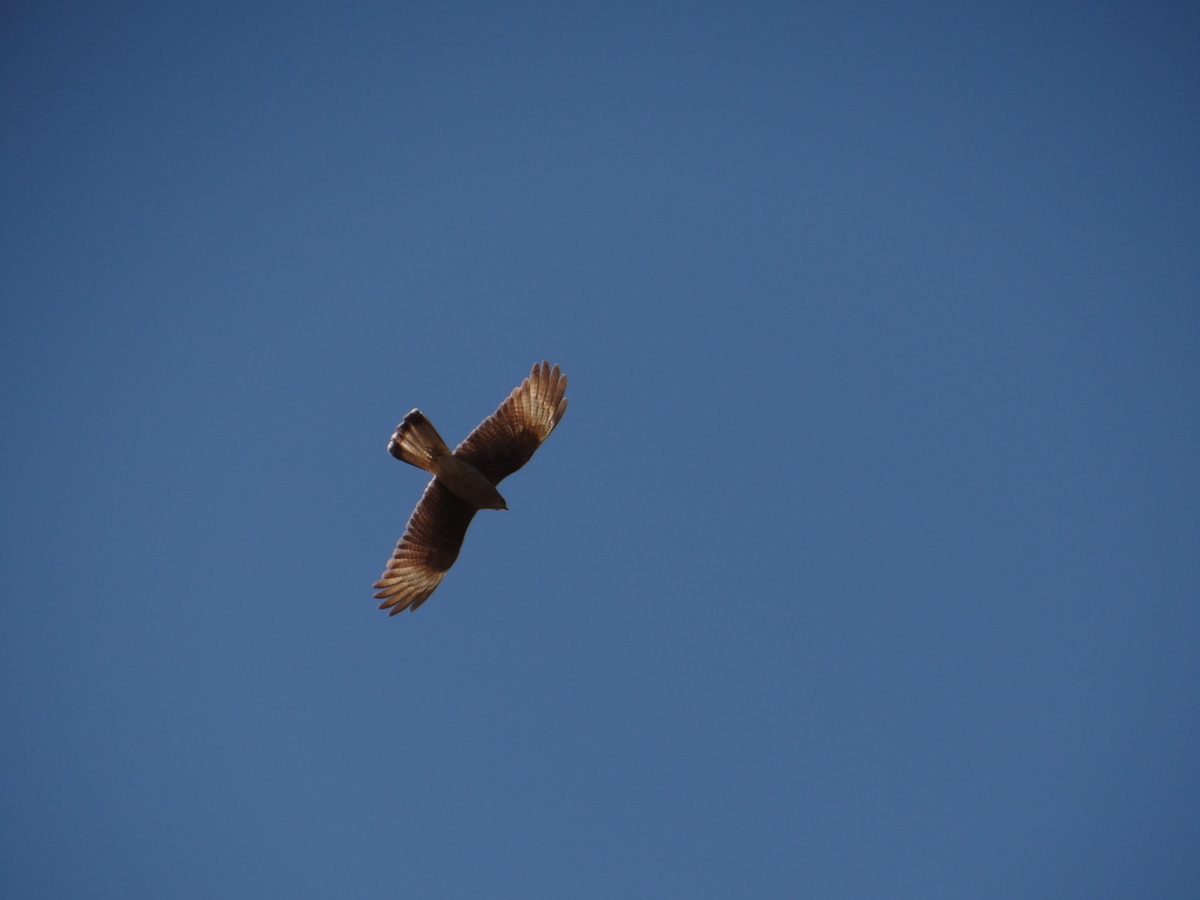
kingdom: Animalia
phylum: Chordata
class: Aves
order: Falconiformes
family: Falconidae
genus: Daptrius
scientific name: Daptrius
